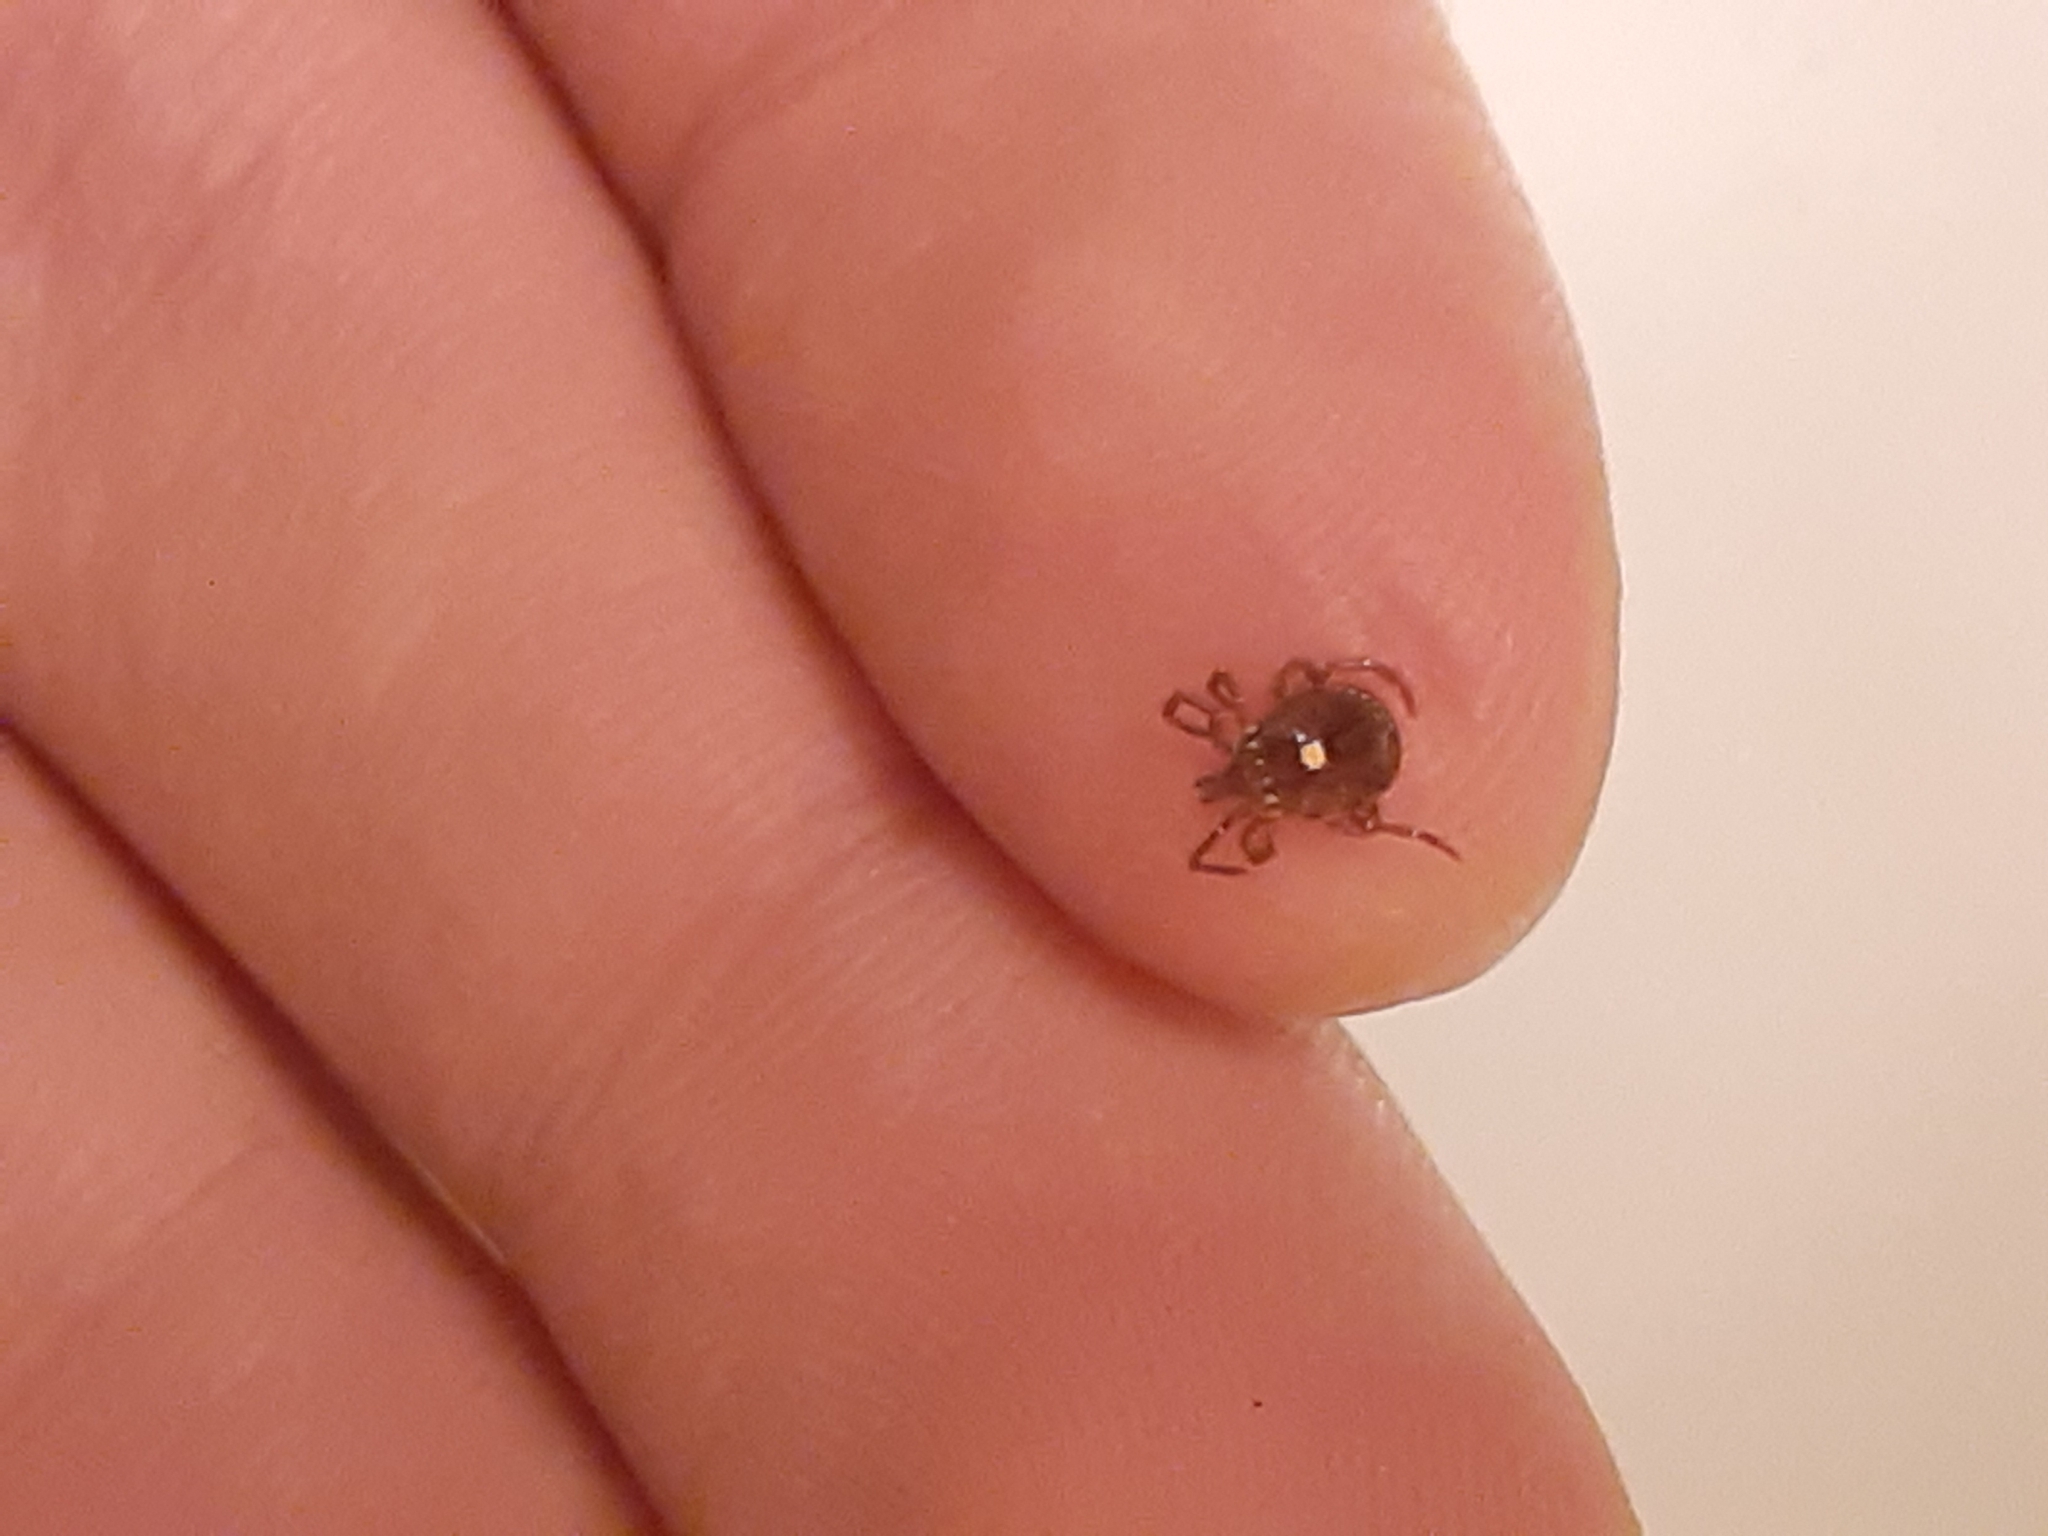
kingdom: Animalia
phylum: Arthropoda
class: Arachnida
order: Ixodida
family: Ixodidae
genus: Amblyomma
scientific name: Amblyomma americanum
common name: Lone star tick
